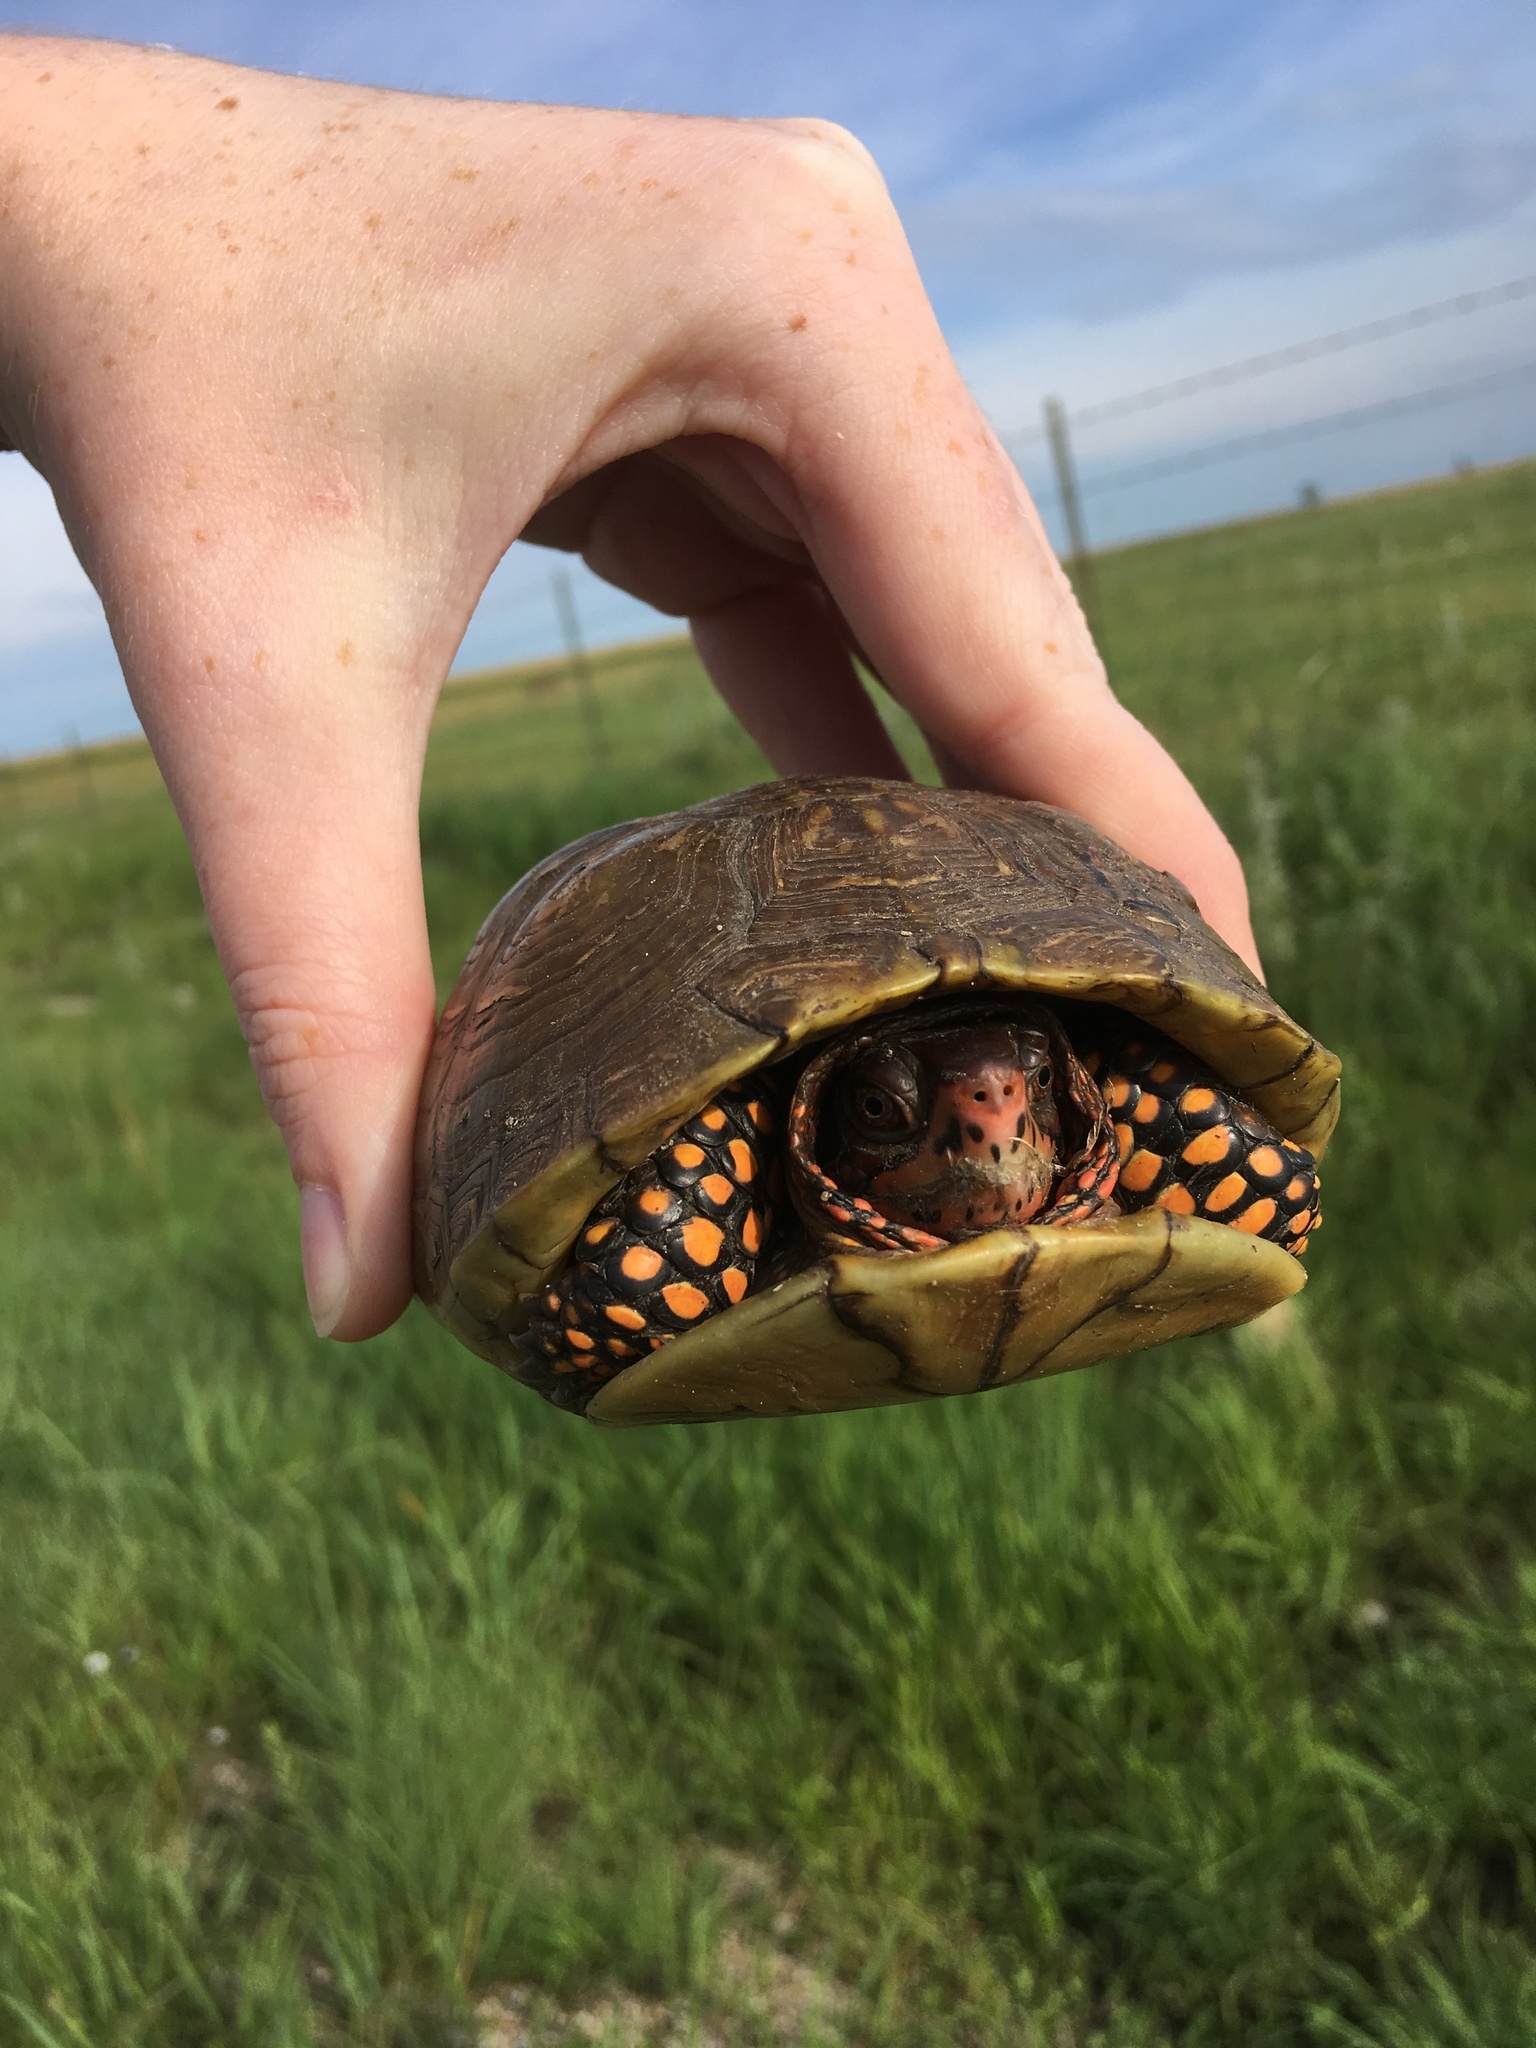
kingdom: Animalia
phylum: Chordata
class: Testudines
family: Emydidae
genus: Terrapene
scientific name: Terrapene carolina
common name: Common box turtle
